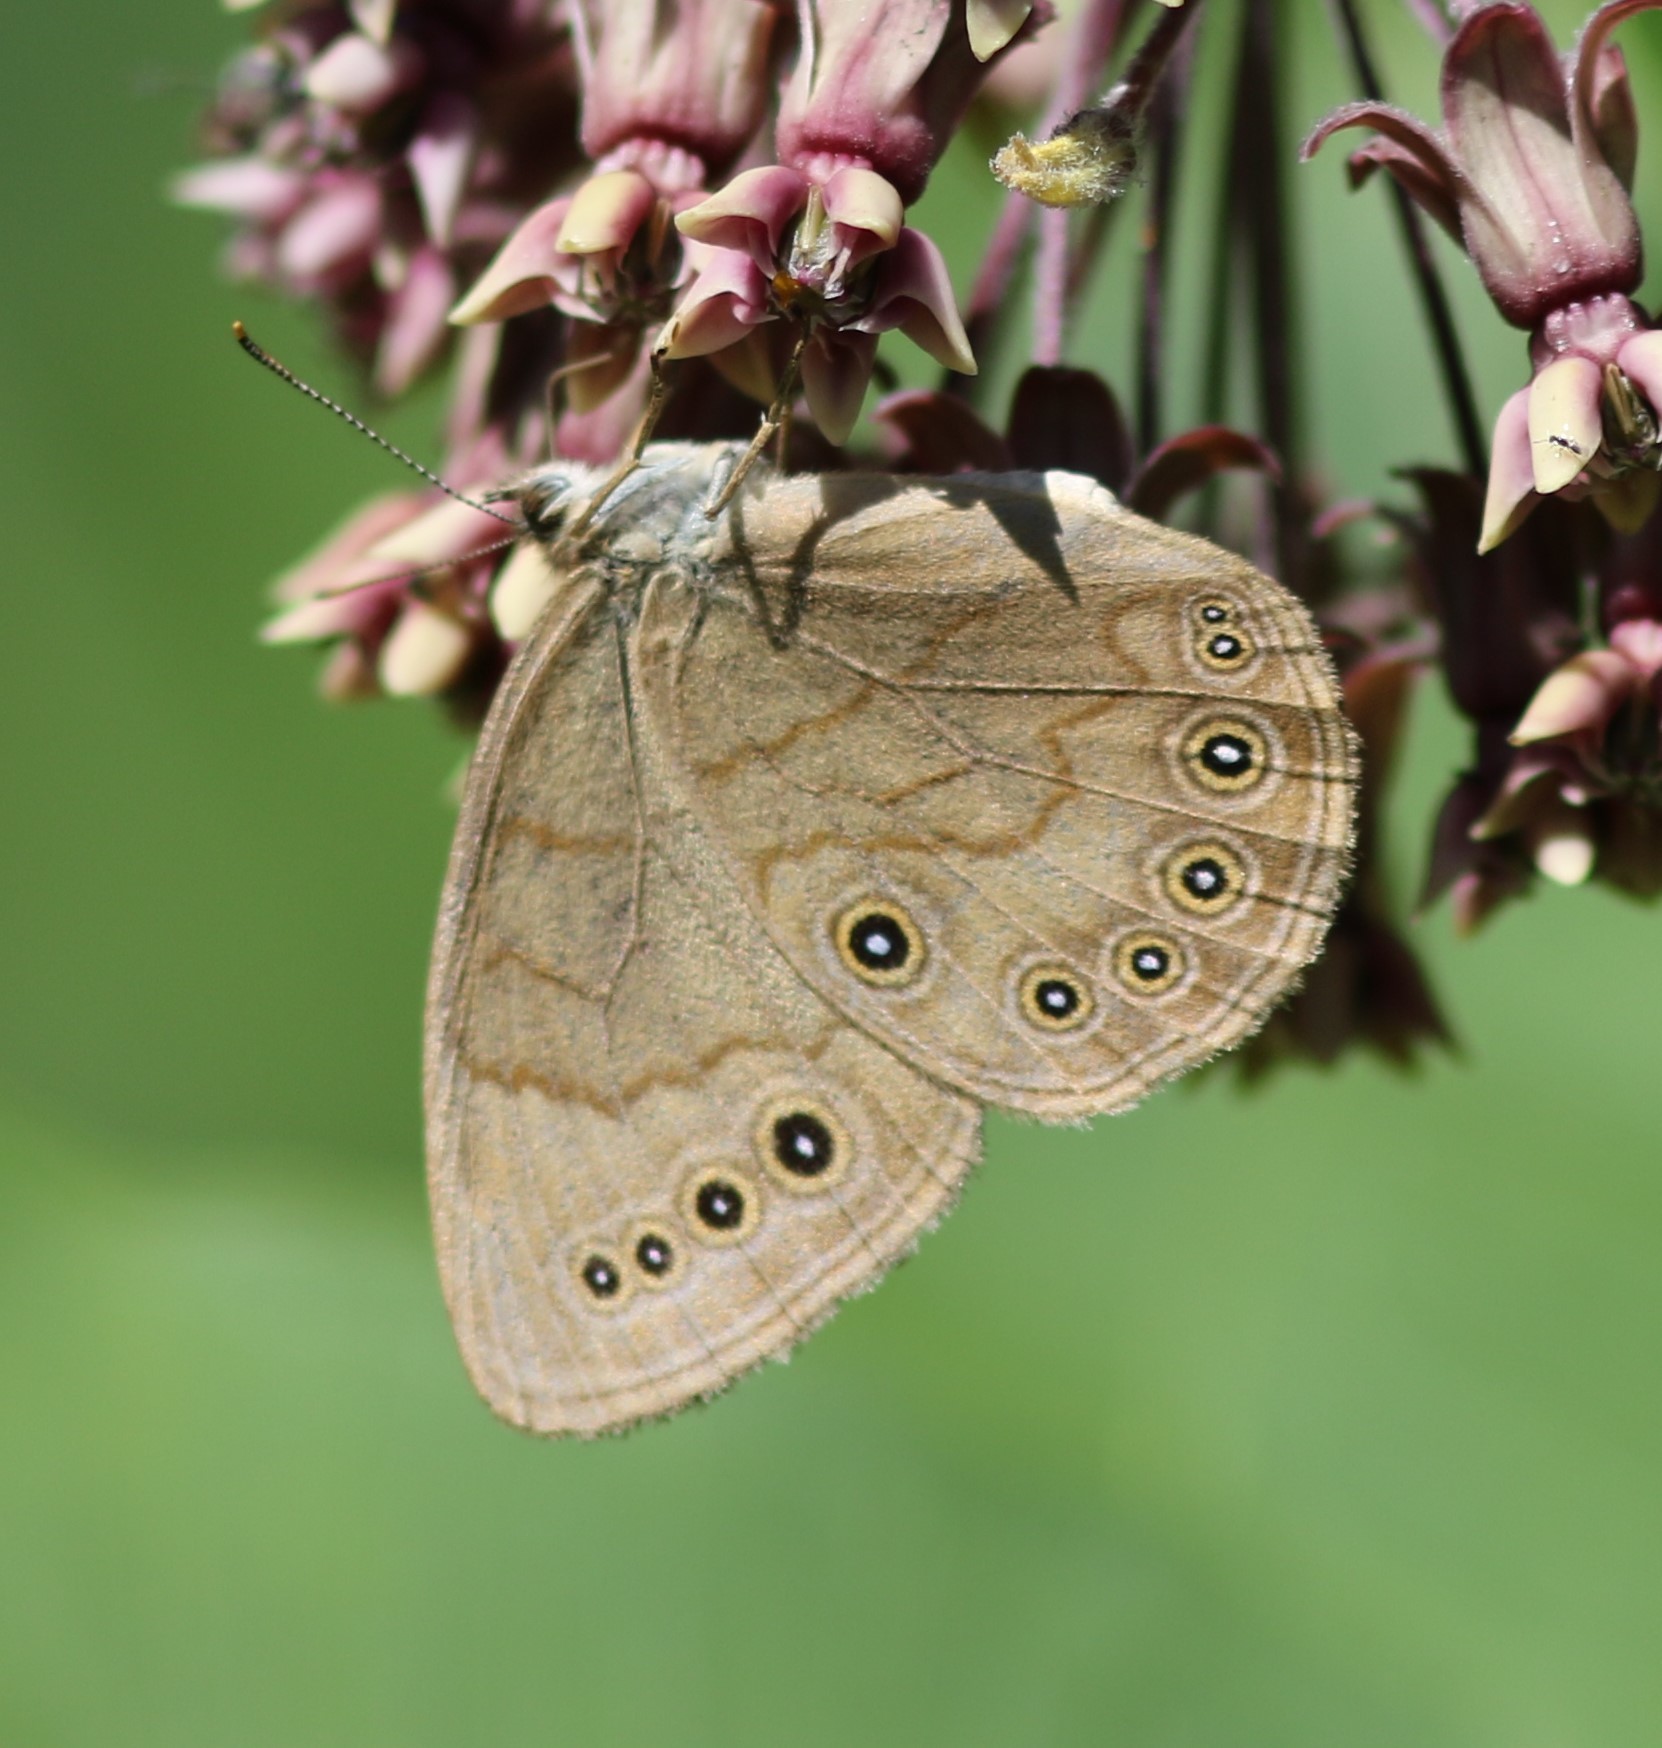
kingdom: Animalia
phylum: Arthropoda
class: Insecta
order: Lepidoptera
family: Nymphalidae
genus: Lethe
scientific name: Lethe eurydice
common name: Eyed brown
